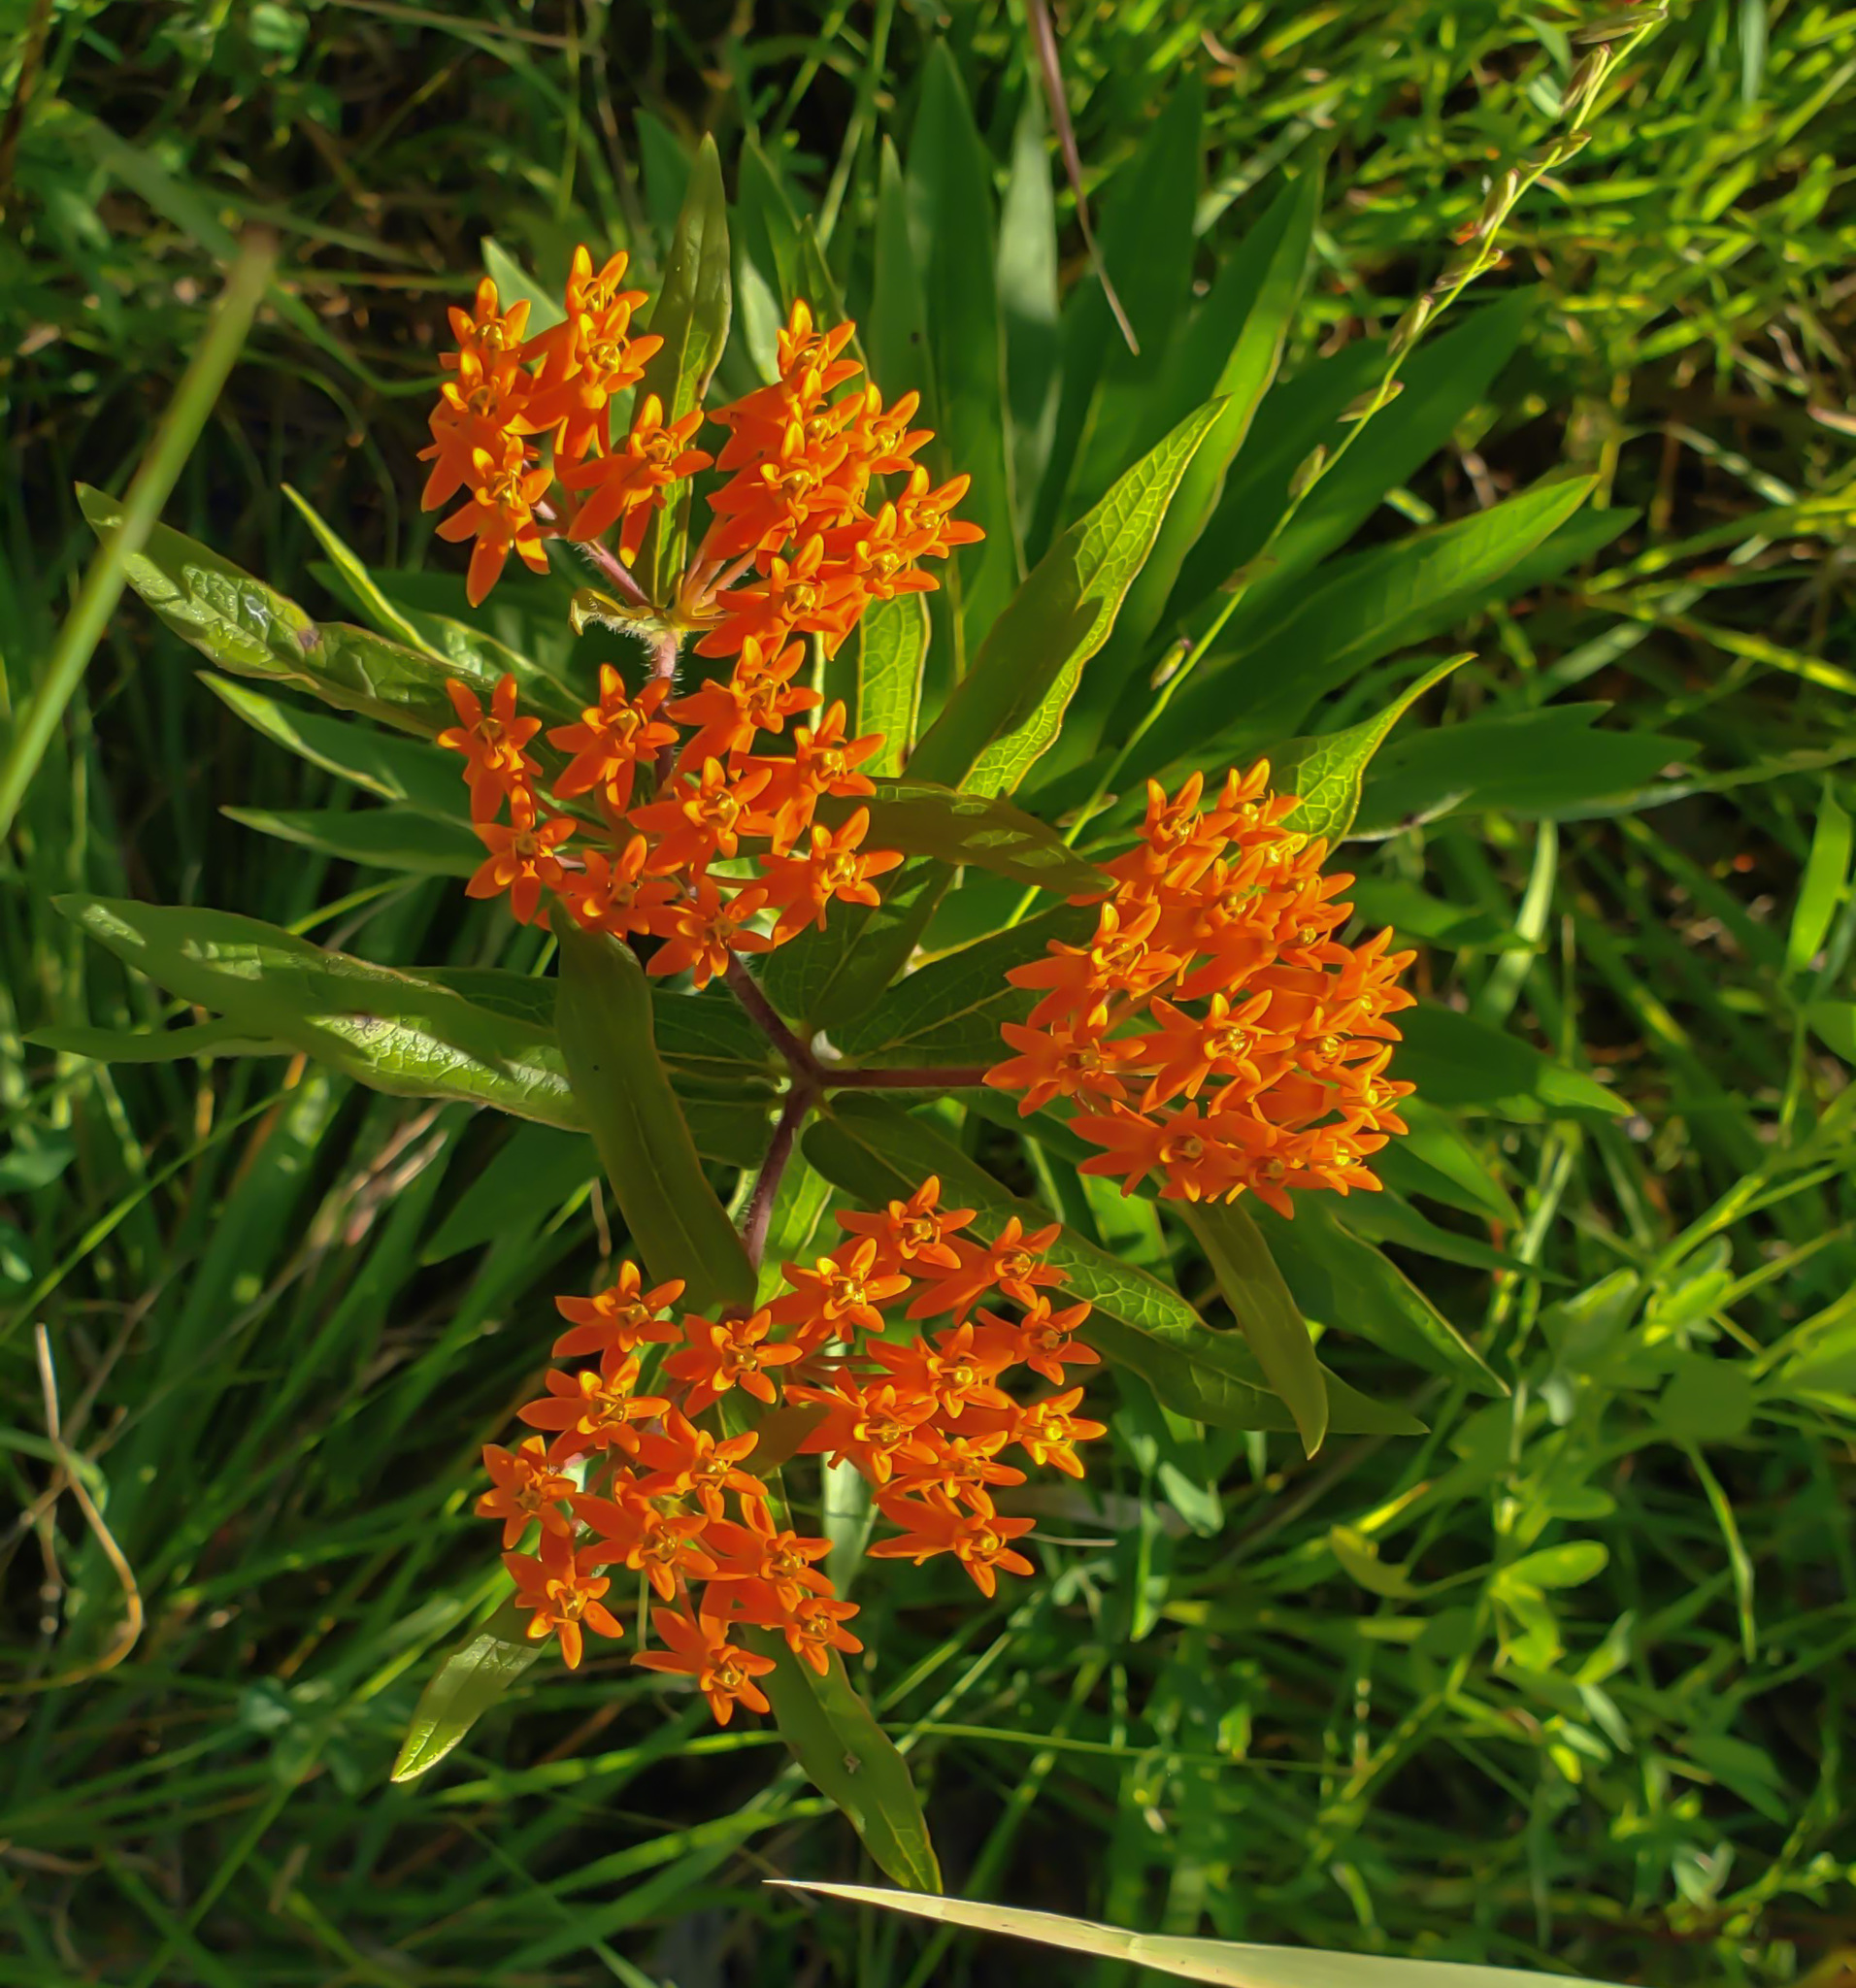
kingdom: Plantae
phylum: Tracheophyta
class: Magnoliopsida
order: Gentianales
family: Apocynaceae
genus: Asclepias
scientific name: Asclepias tuberosa
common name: Butterfly milkweed
